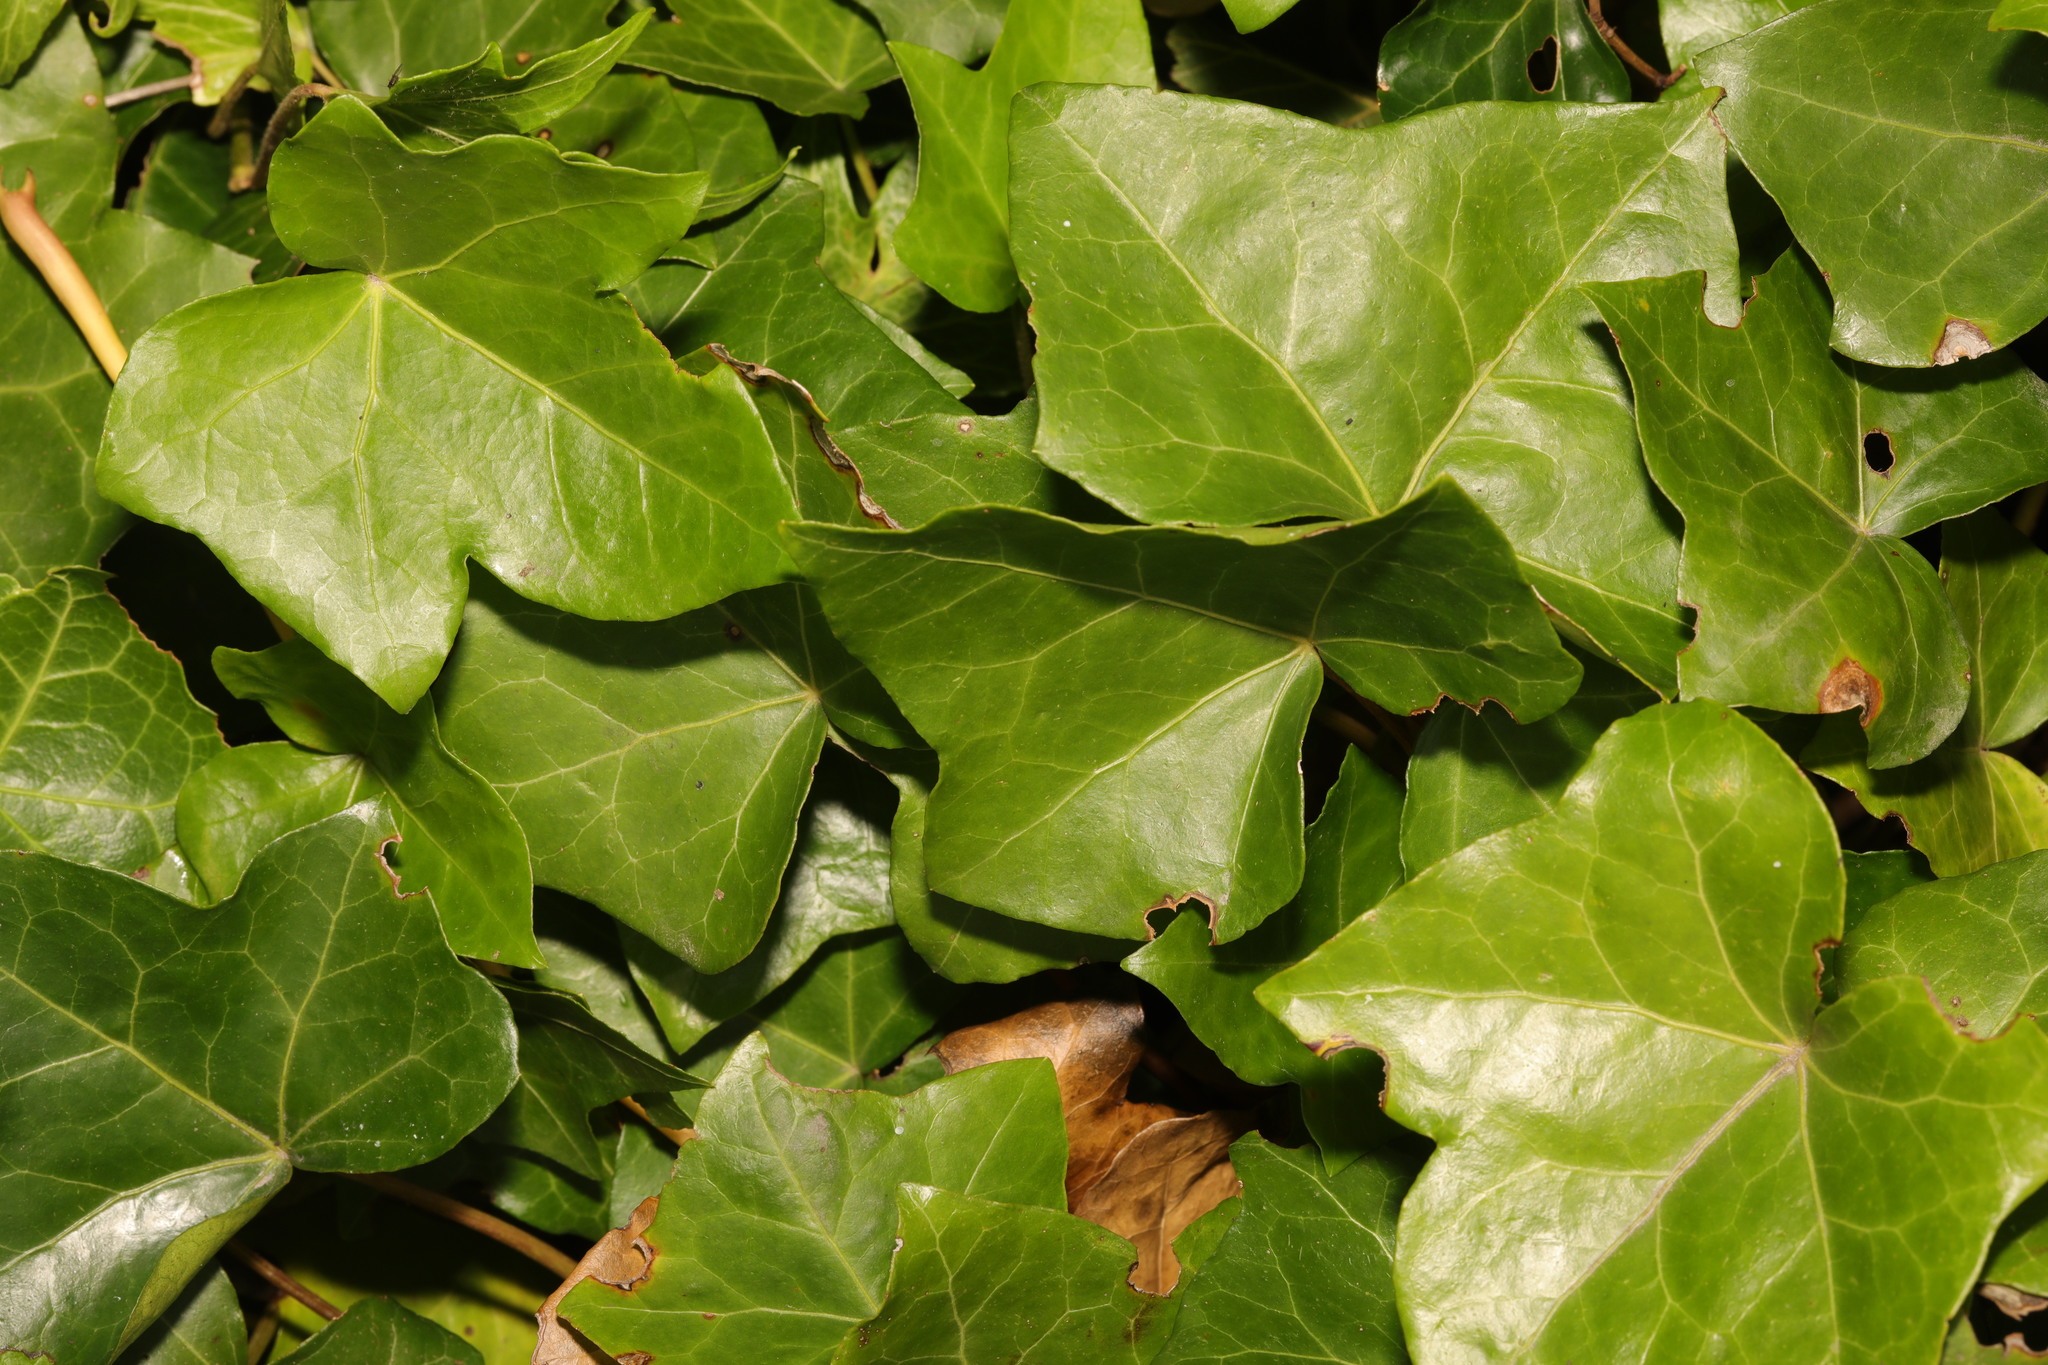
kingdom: Plantae
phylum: Tracheophyta
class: Magnoliopsida
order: Apiales
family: Araliaceae
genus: Hedera
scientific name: Hedera helix
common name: Ivy
